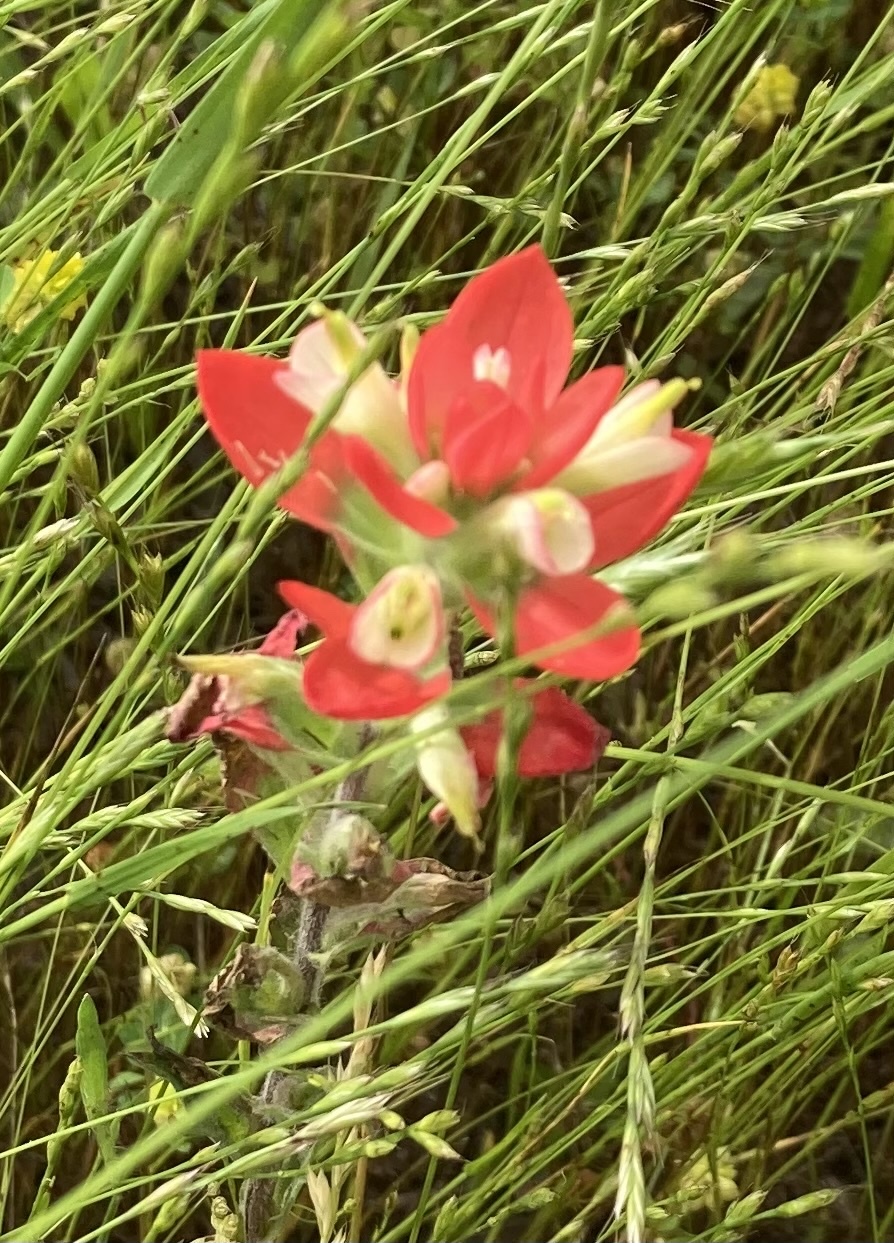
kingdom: Plantae
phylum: Tracheophyta
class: Magnoliopsida
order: Lamiales
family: Orobanchaceae
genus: Castilleja
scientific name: Castilleja indivisa
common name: Texas paintbrush
